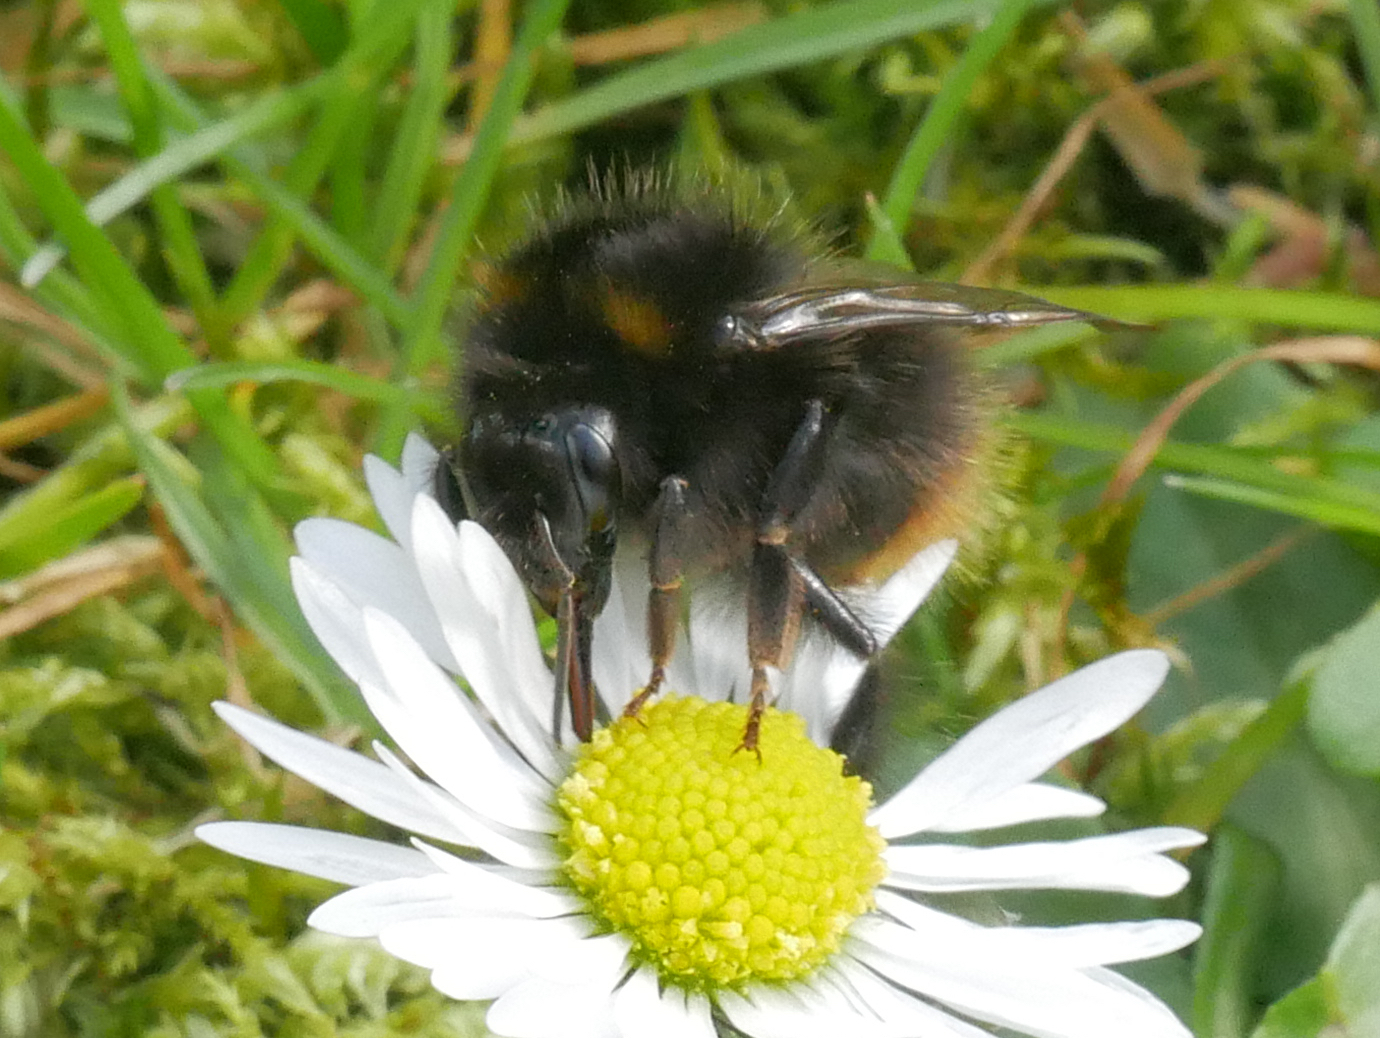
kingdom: Animalia
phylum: Arthropoda
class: Insecta
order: Hymenoptera
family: Apidae
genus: Bombus
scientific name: Bombus pratorum
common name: Early humble-bee
